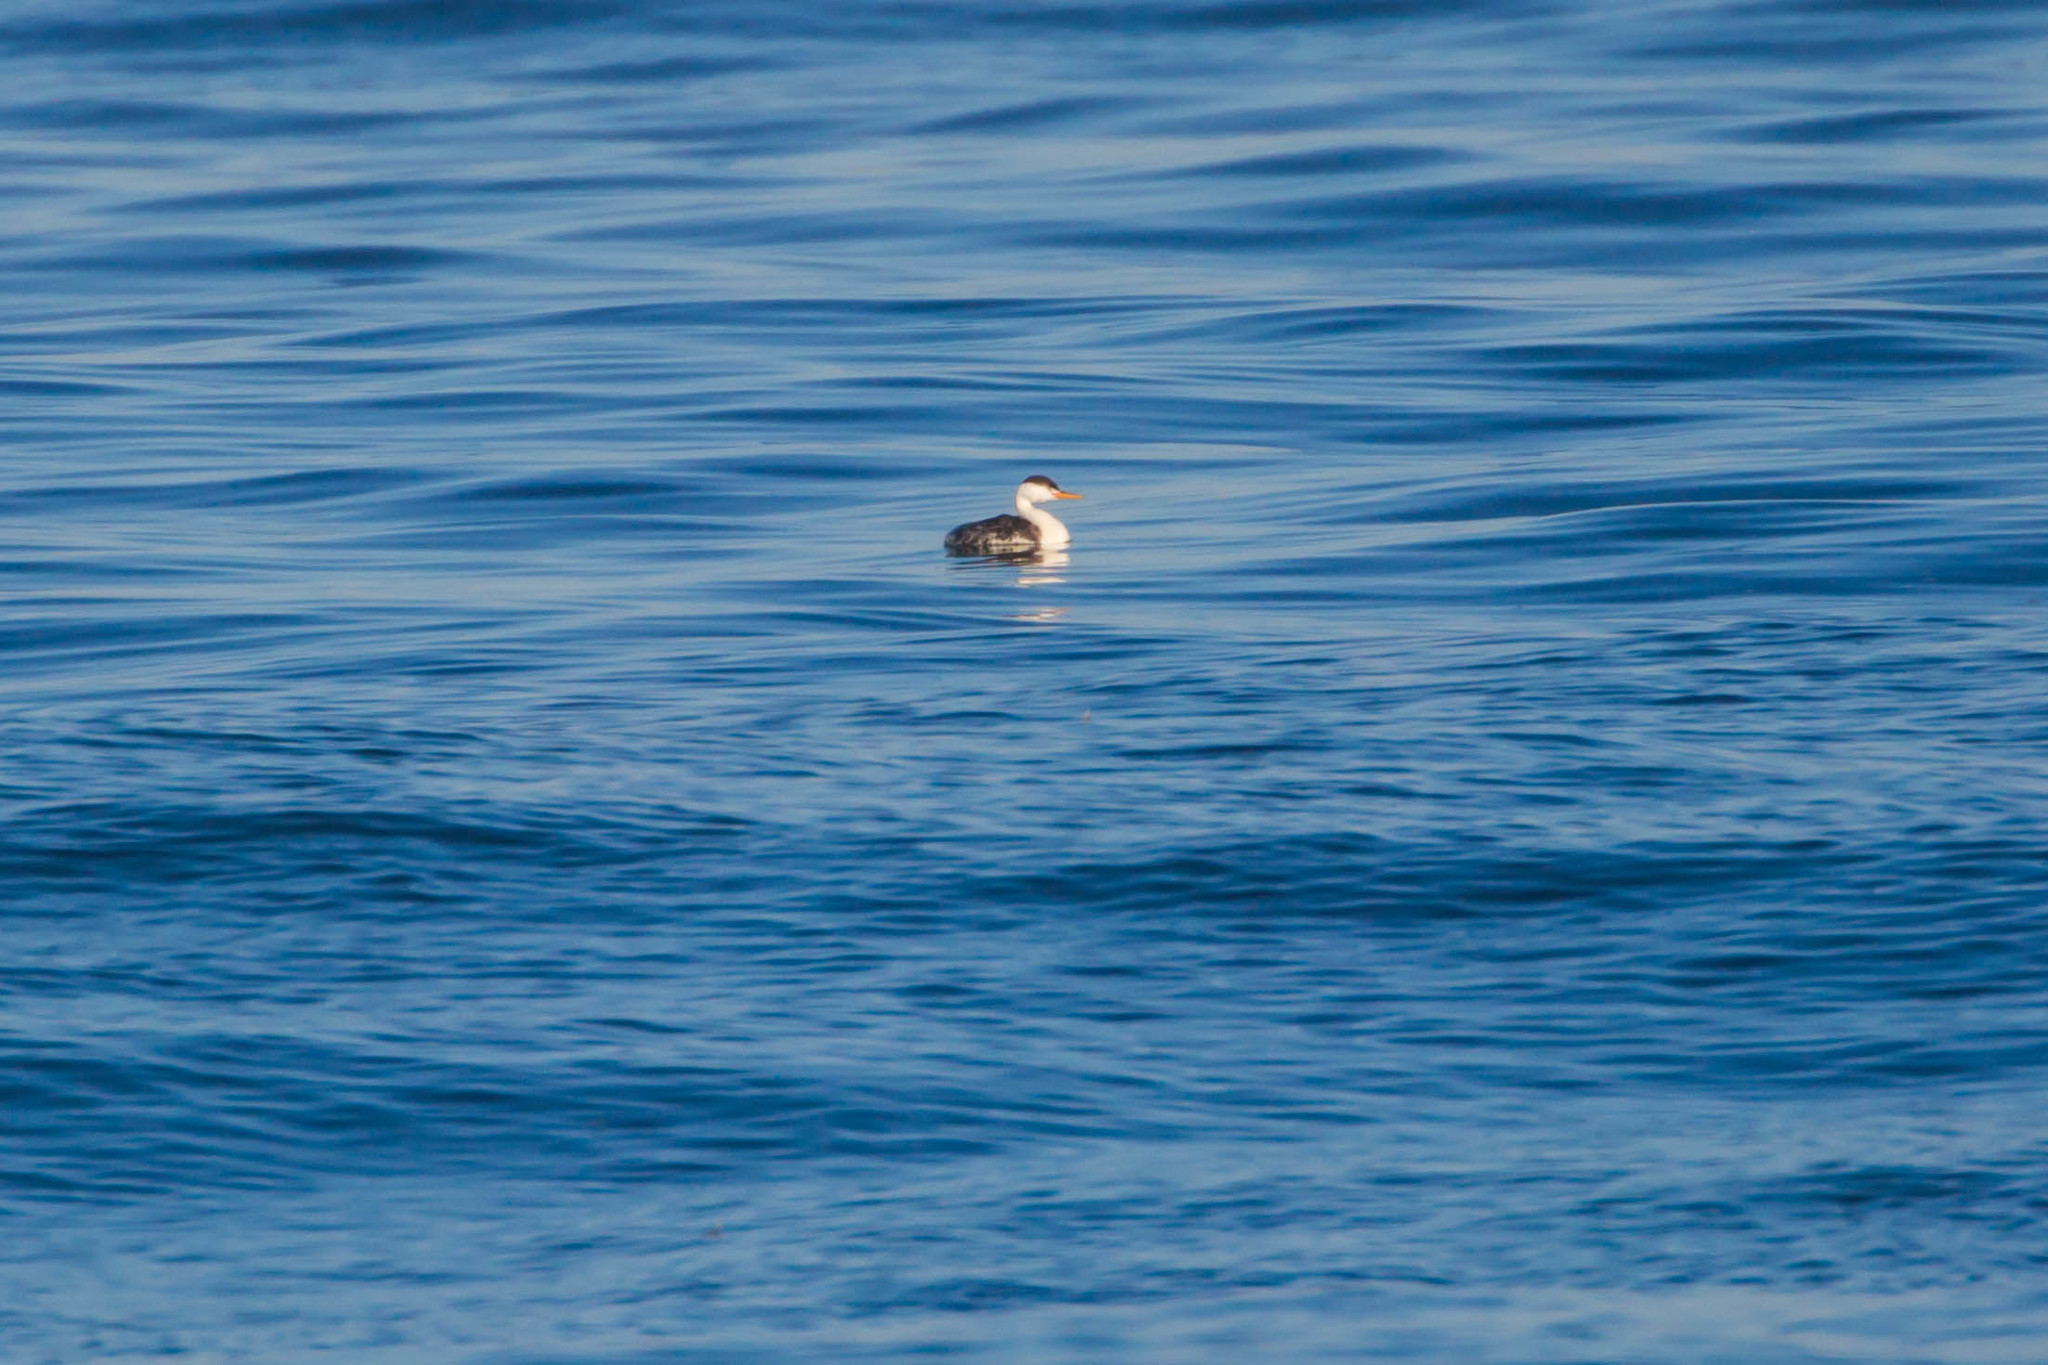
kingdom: Animalia
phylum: Chordata
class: Aves
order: Podicipediformes
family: Podicipedidae
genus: Aechmophorus
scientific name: Aechmophorus clarkii
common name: Clark's grebe
